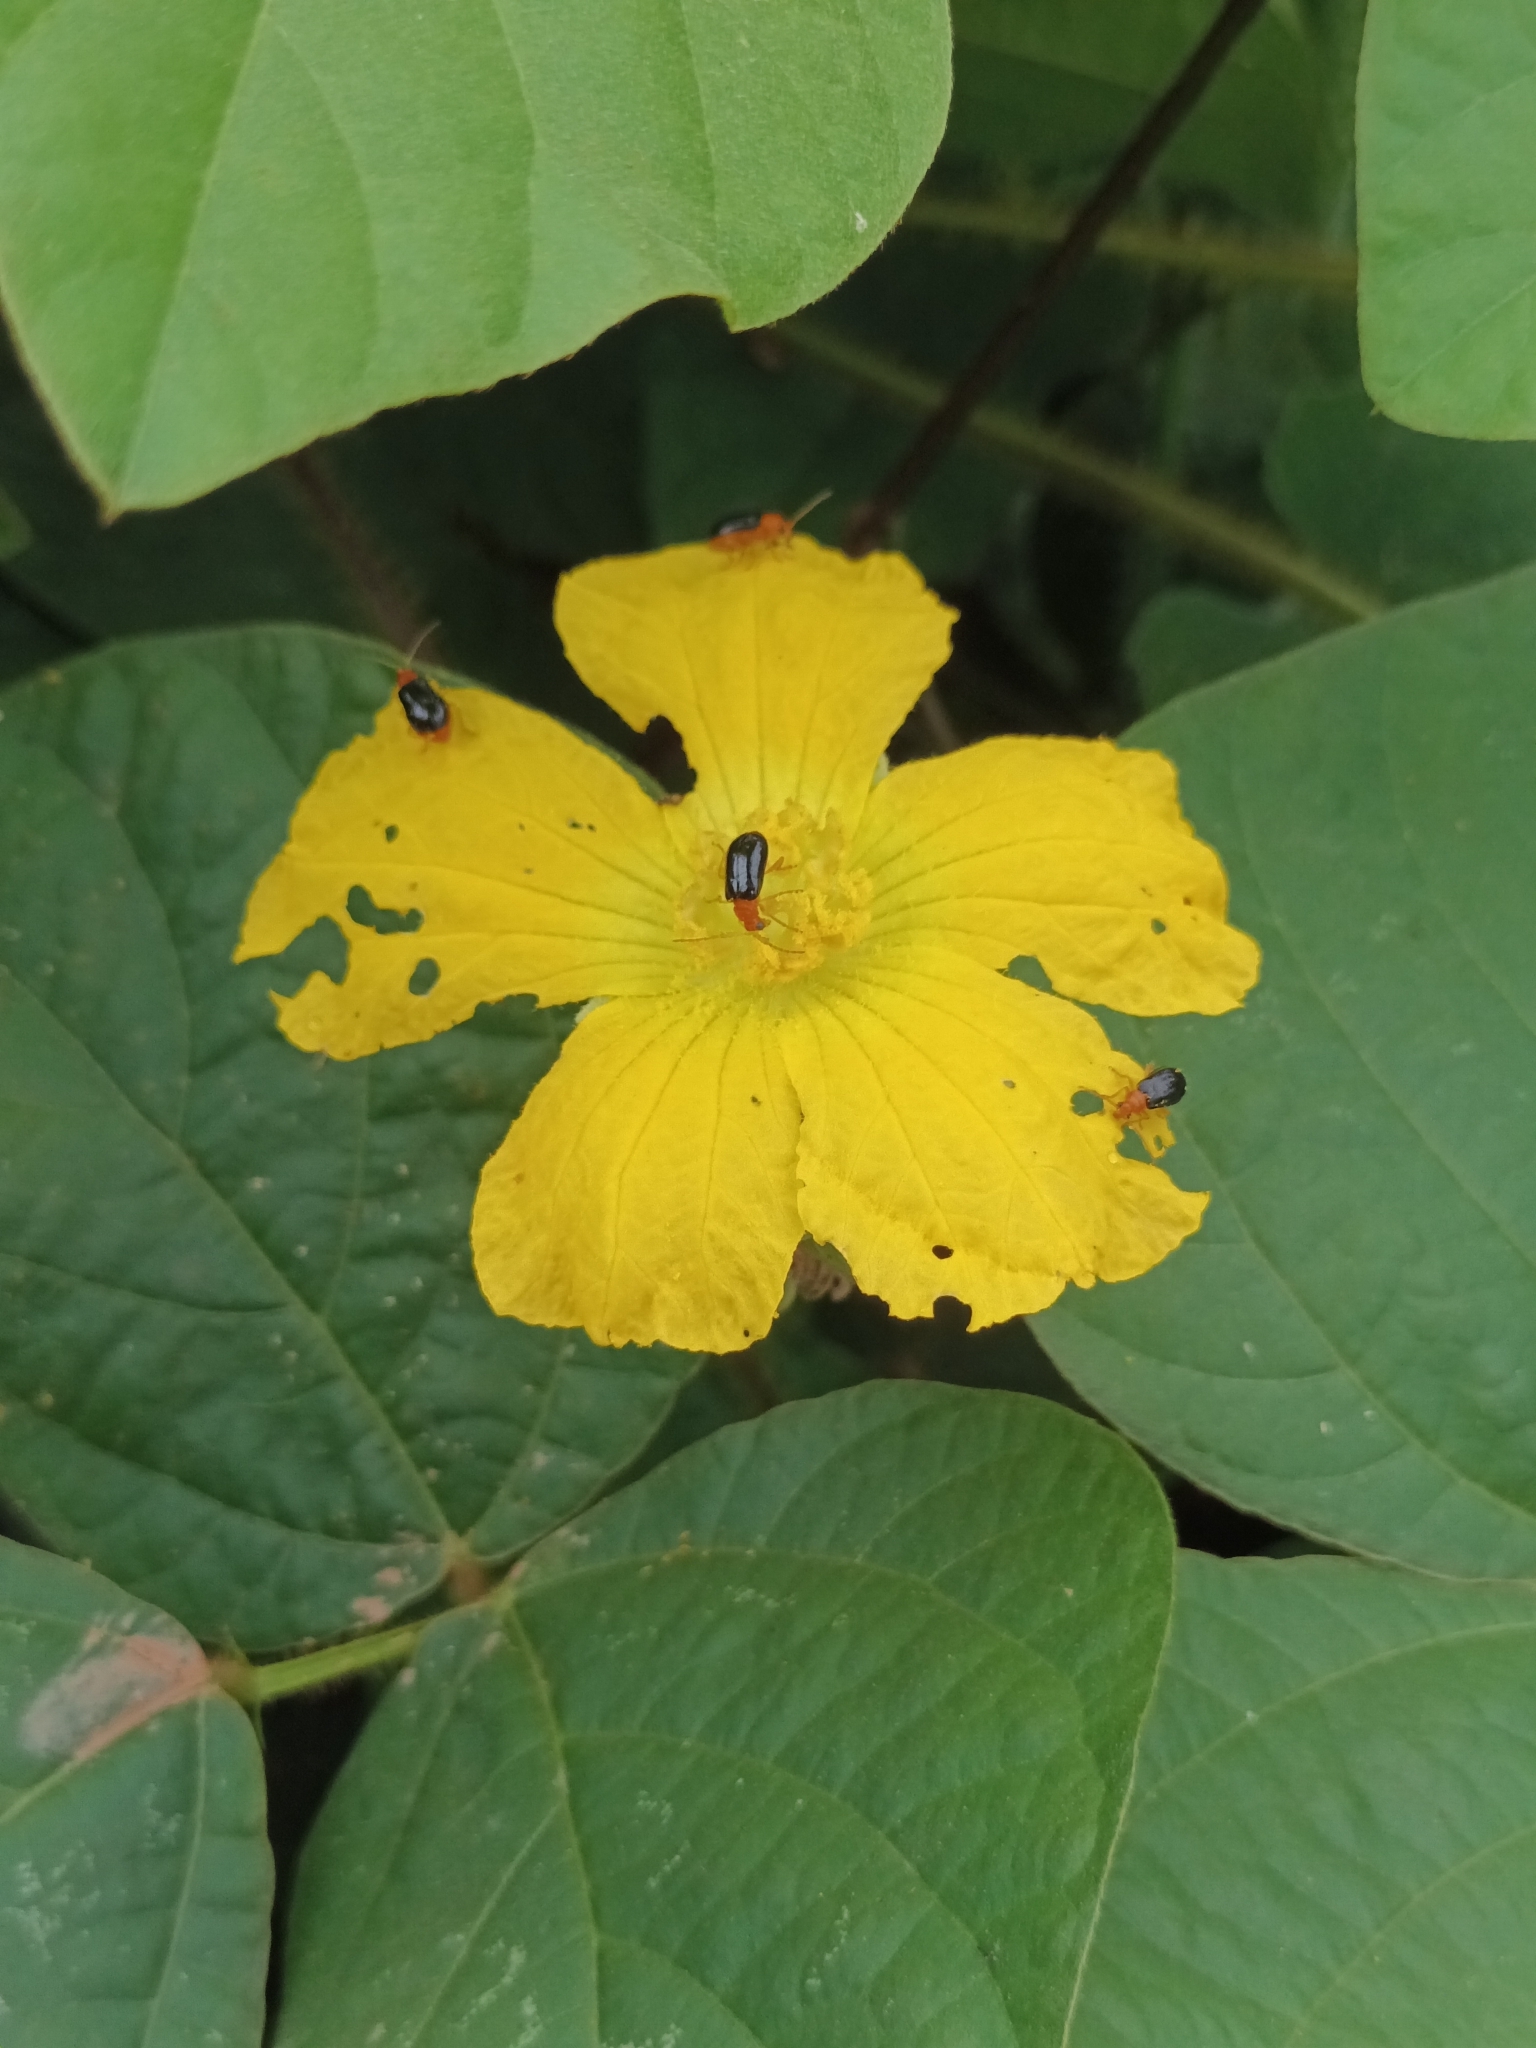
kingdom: Plantae
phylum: Tracheophyta
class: Magnoliopsida
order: Cucurbitales
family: Cucurbitaceae
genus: Luffa
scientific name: Luffa aegyptiaca
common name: Sponge gourd
